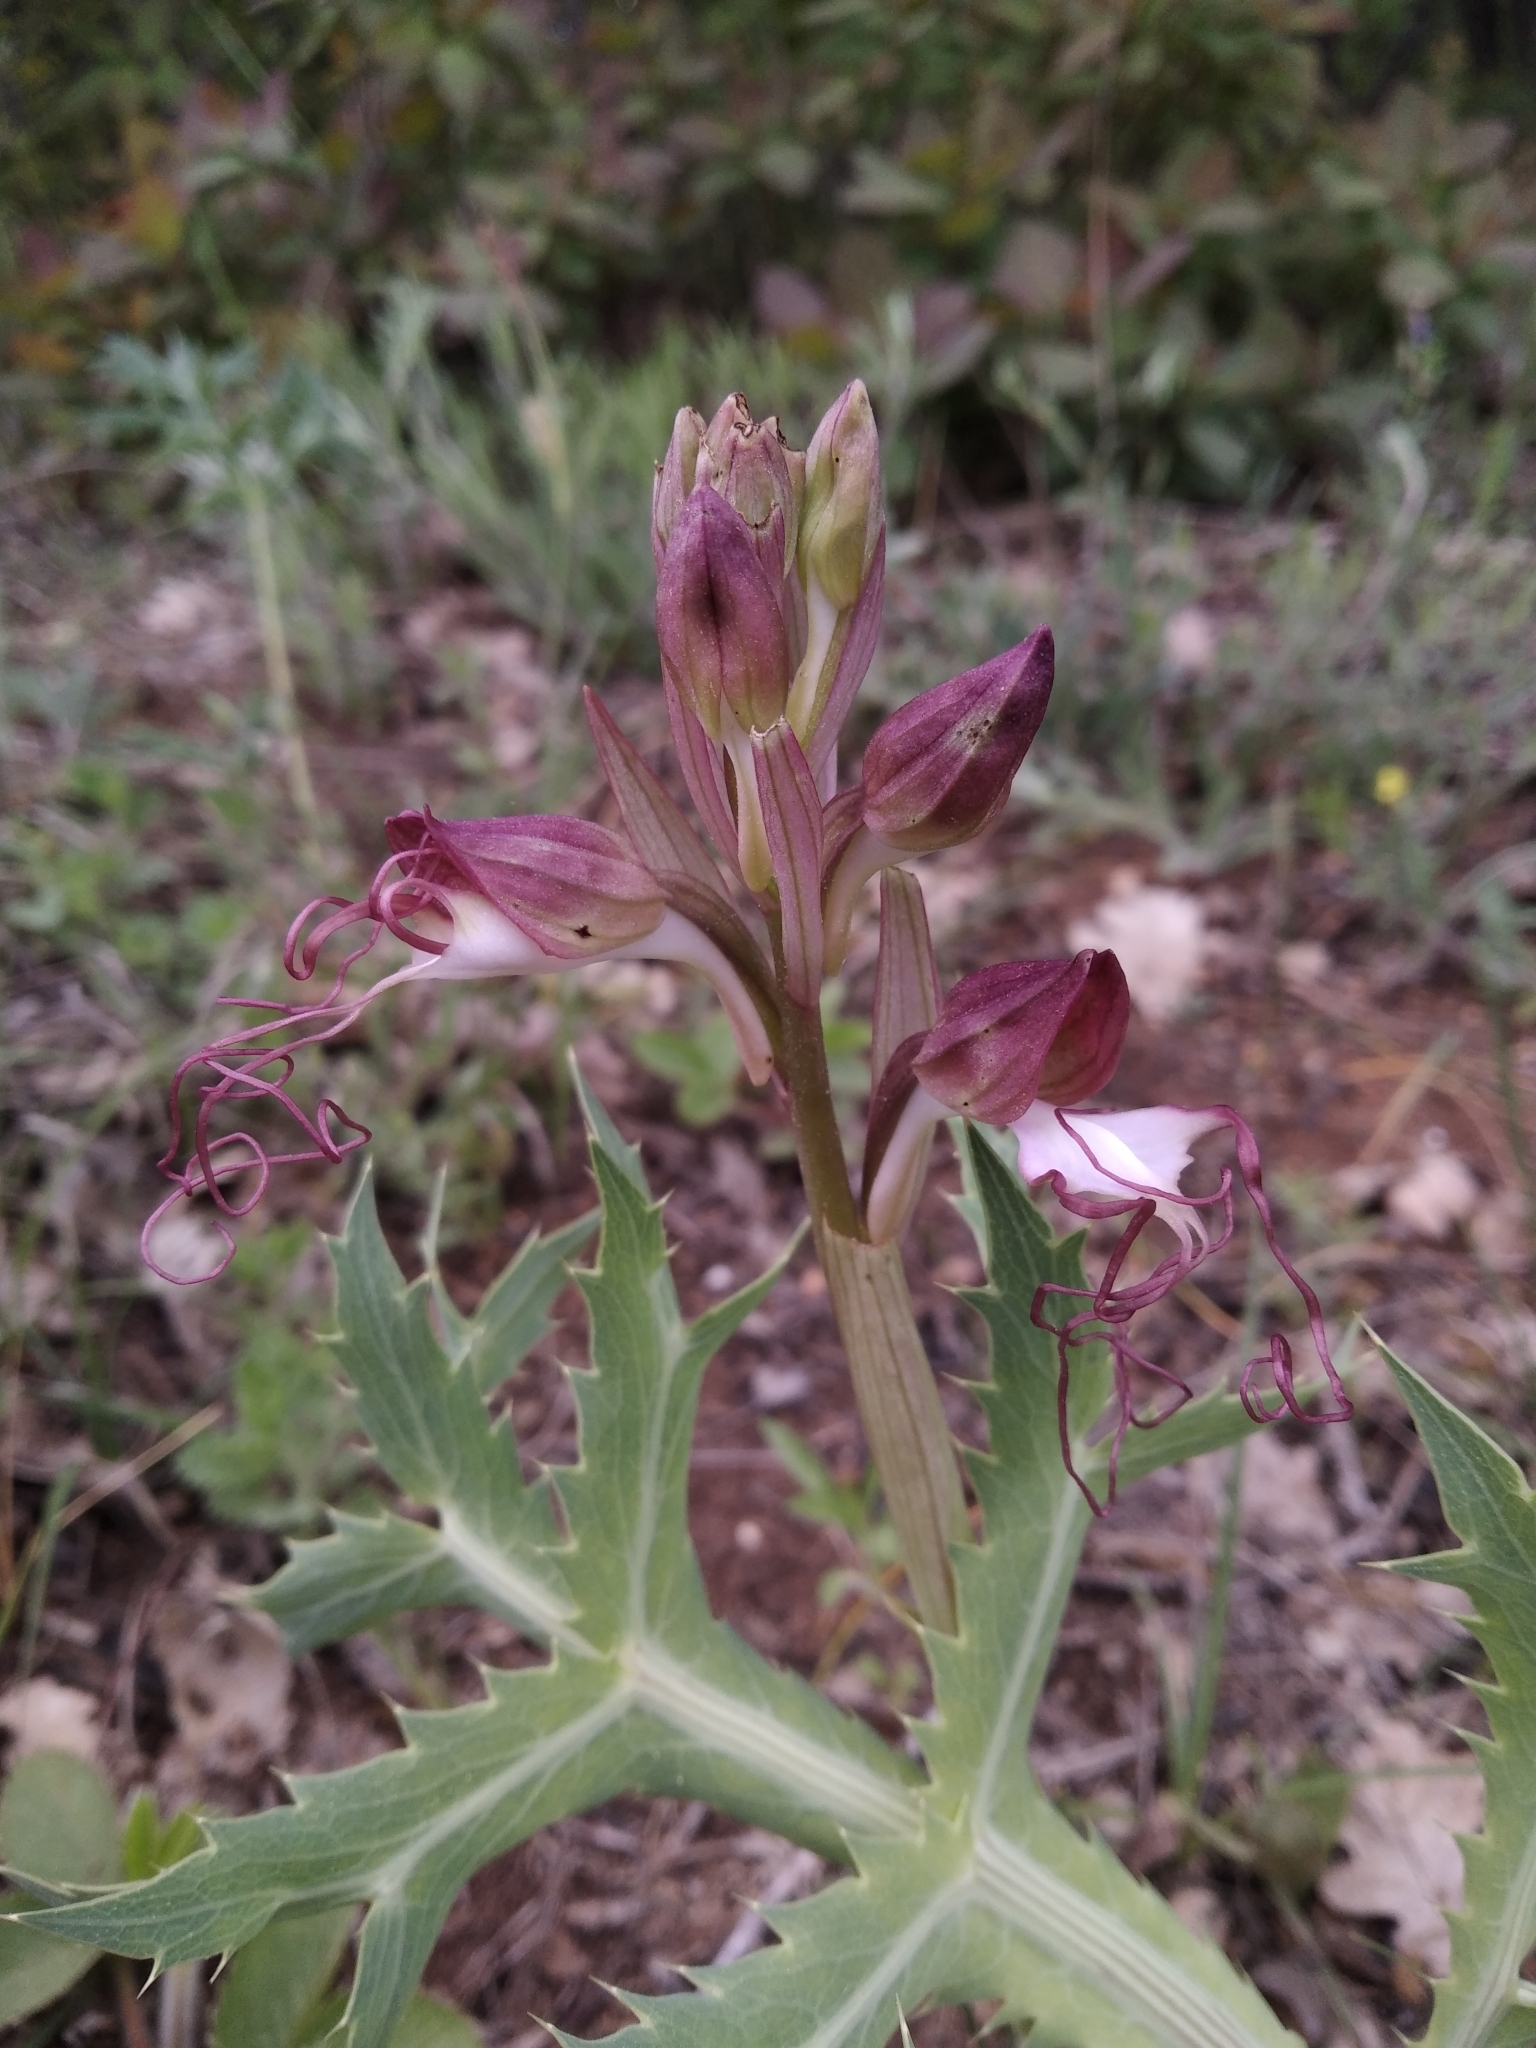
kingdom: Plantae
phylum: Tracheophyta
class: Liliopsida
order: Asparagales
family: Orchidaceae
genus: Himantoglossum
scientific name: Himantoglossum comperianum
